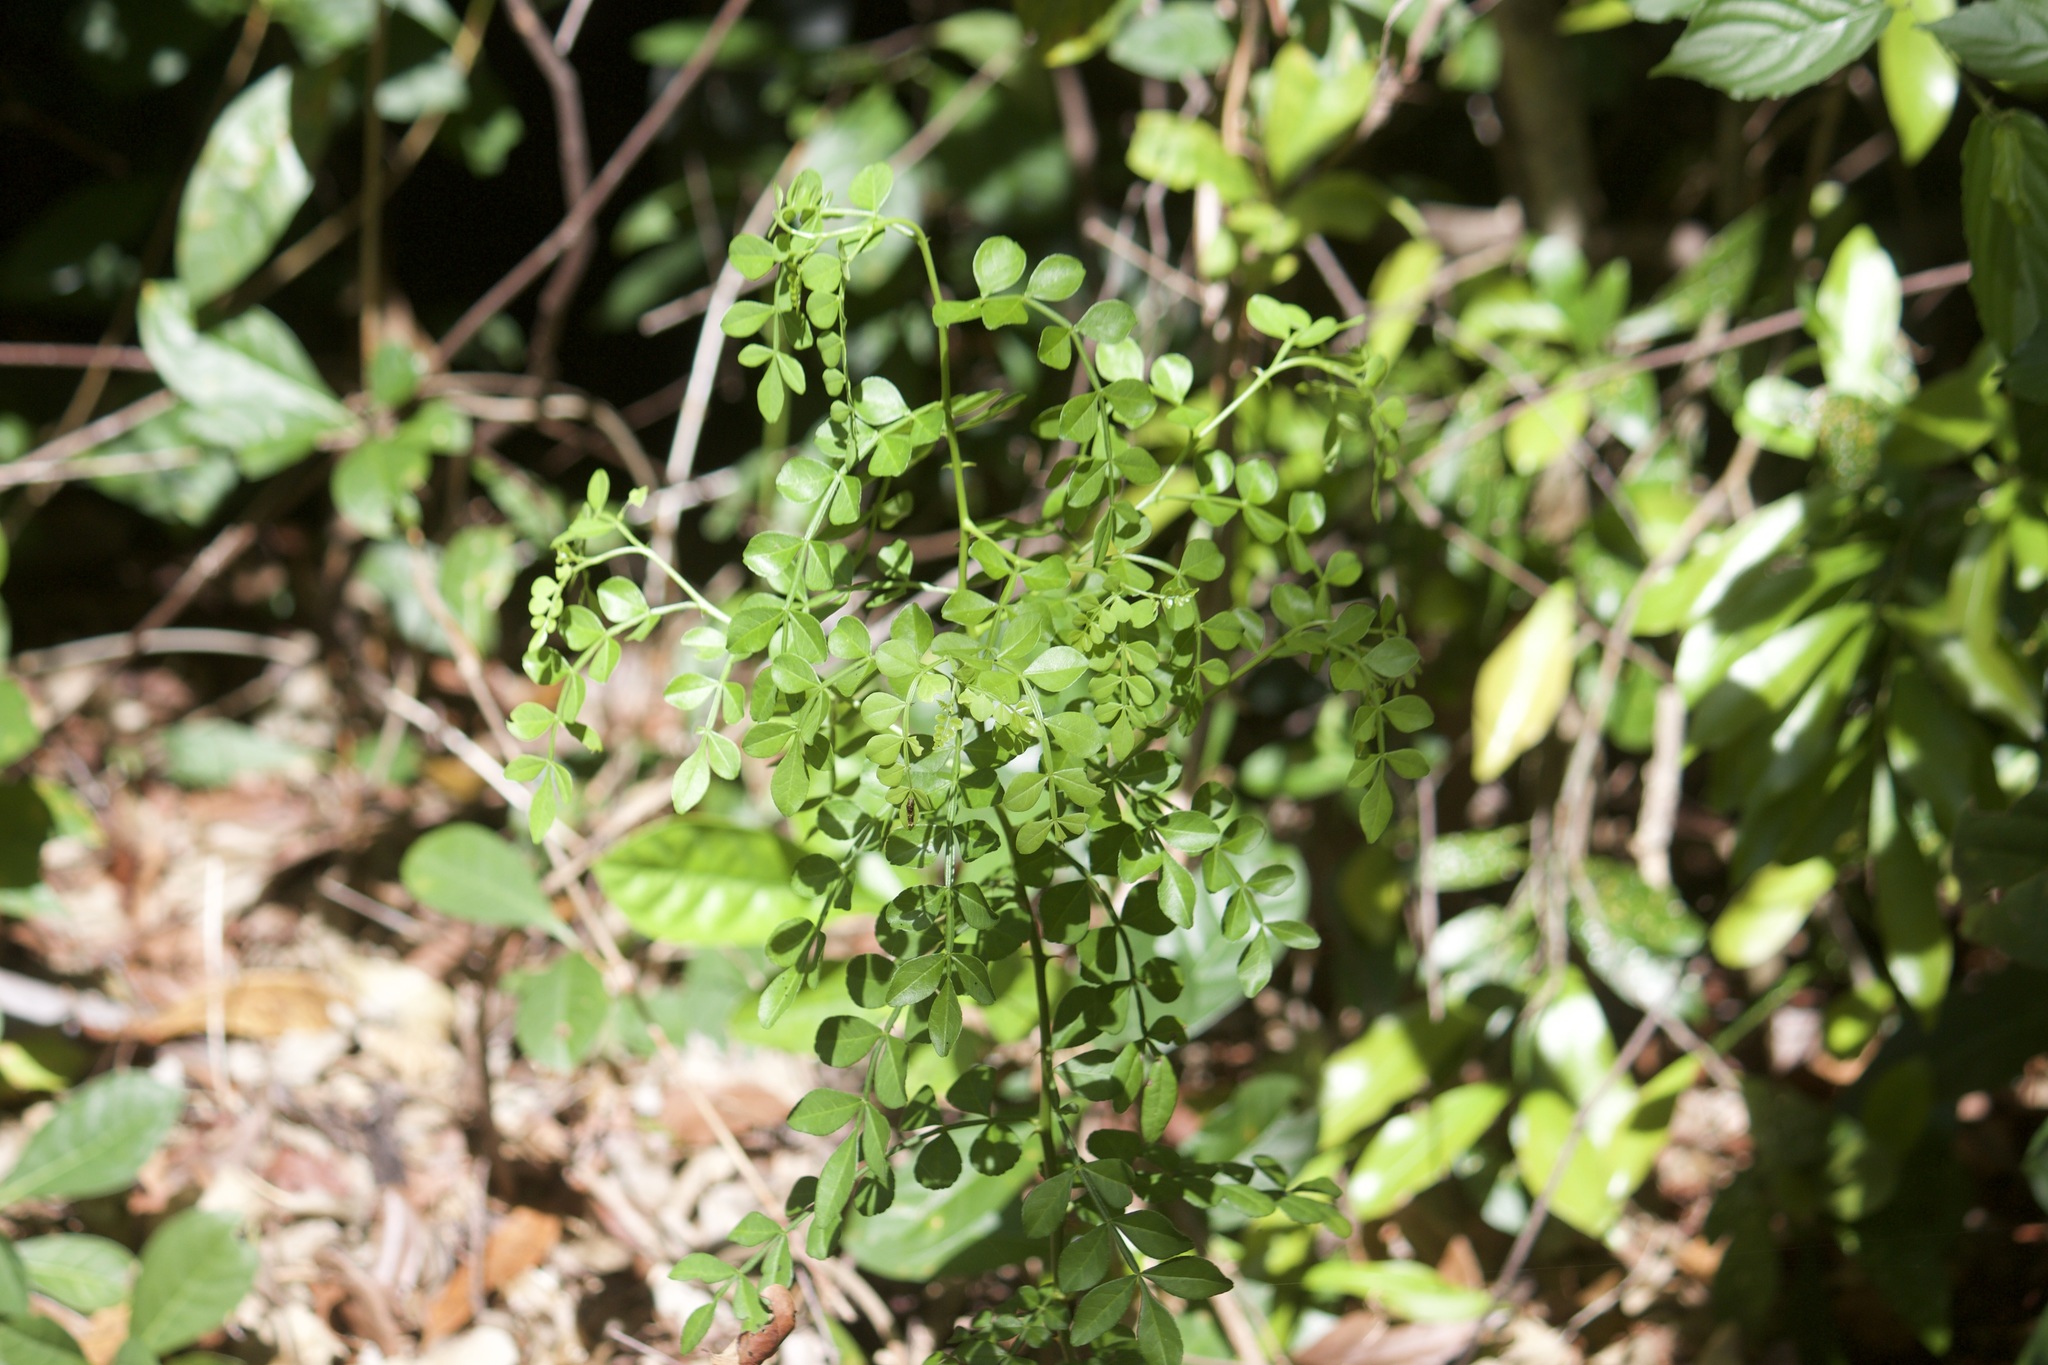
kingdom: Plantae
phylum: Tracheophyta
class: Magnoliopsida
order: Sapindales
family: Rutaceae
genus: Zanthoxylum
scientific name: Zanthoxylum fagara
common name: Lime prickly-ash
